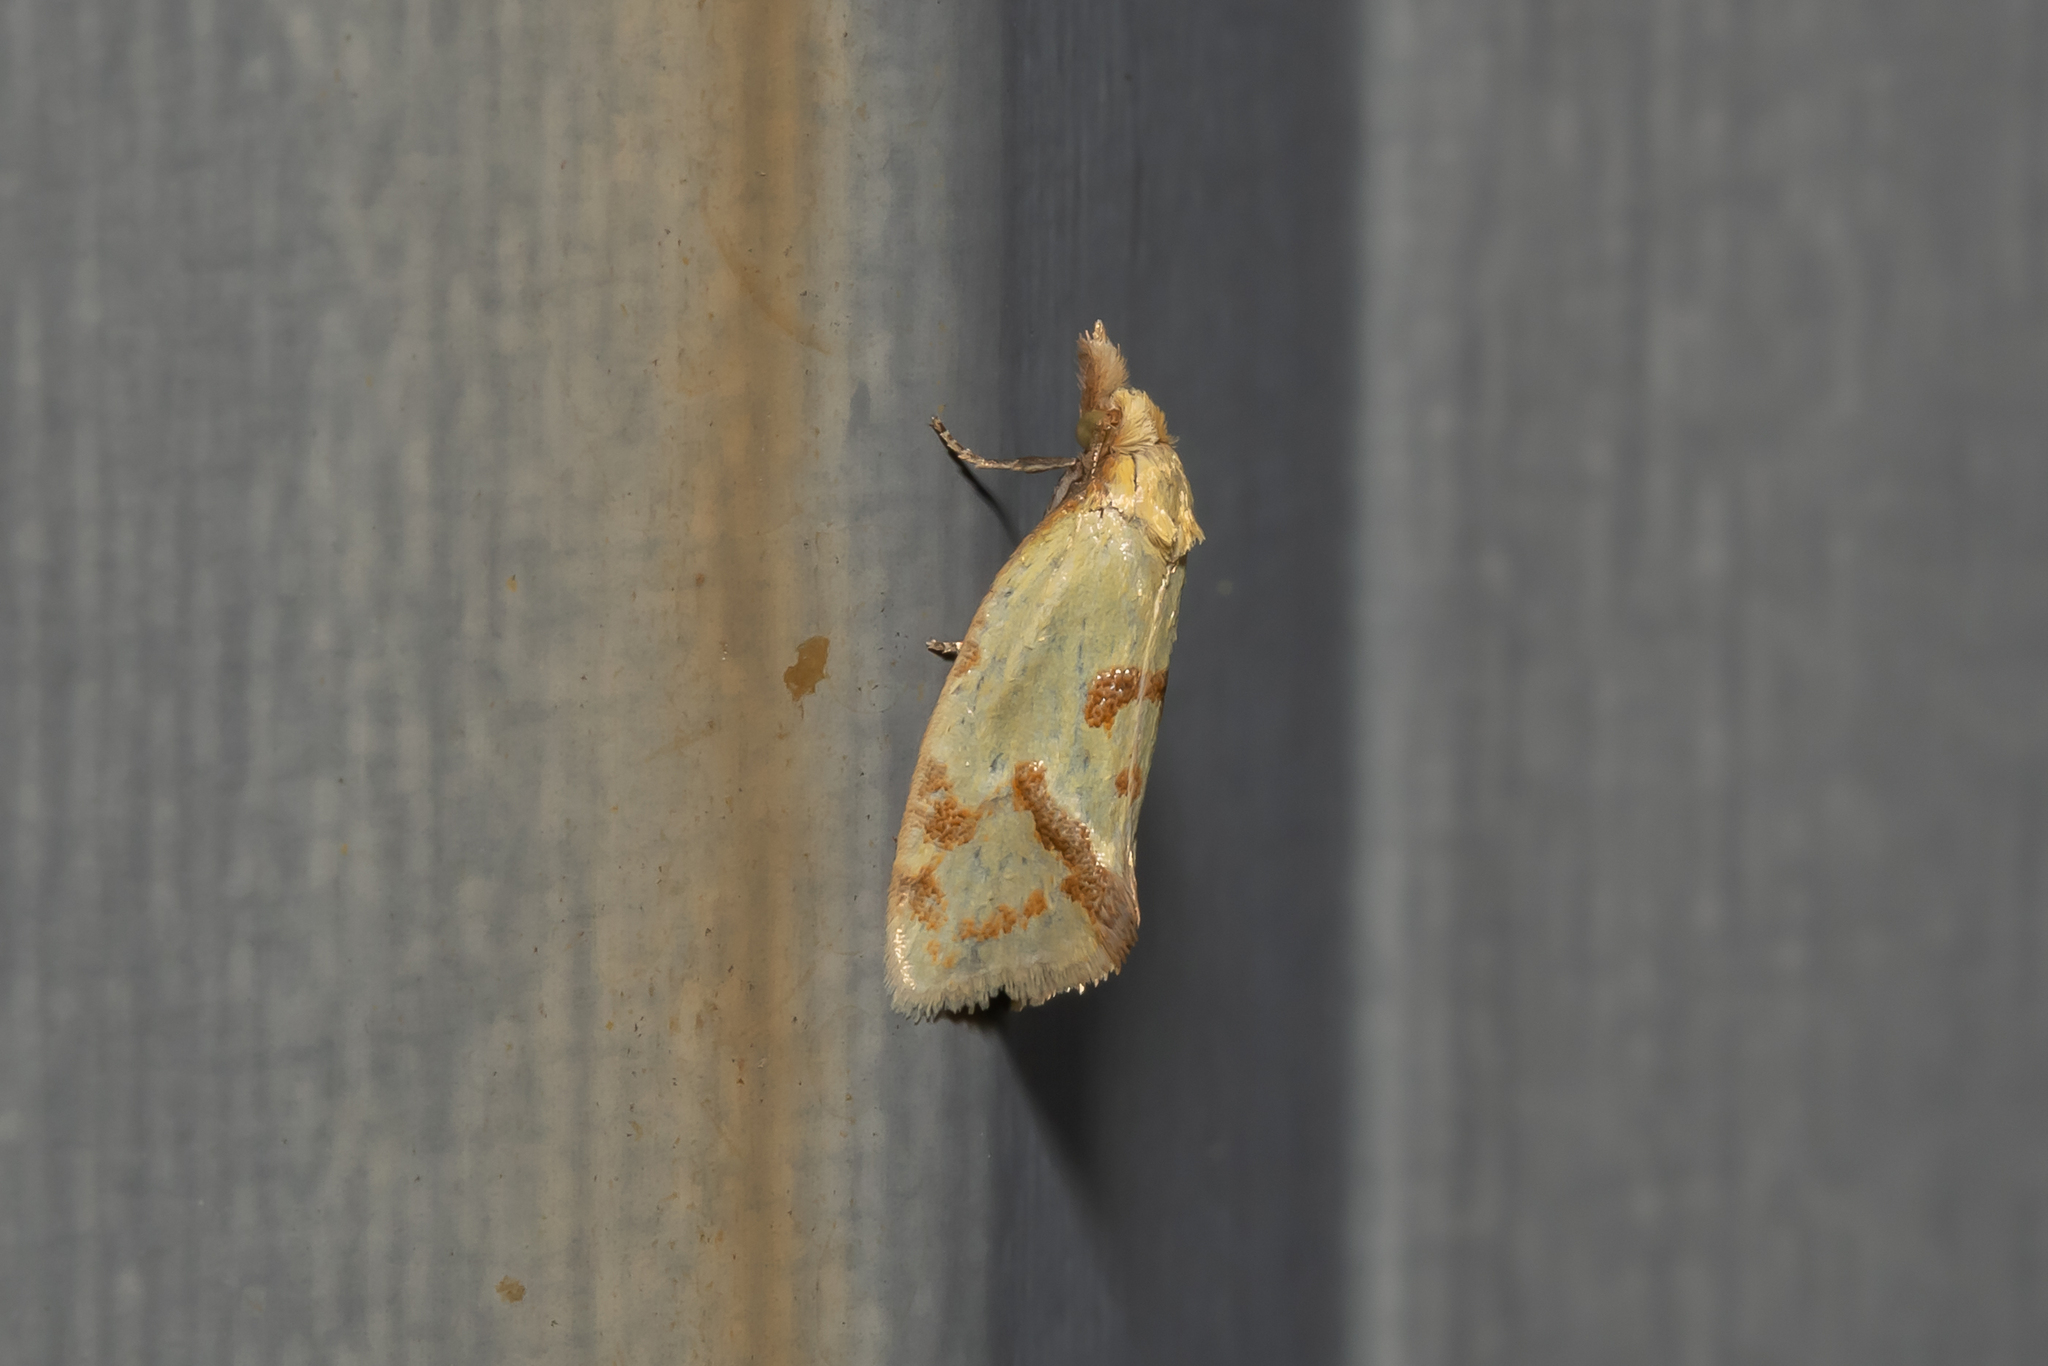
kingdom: Animalia
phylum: Arthropoda
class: Insecta
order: Lepidoptera
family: Tortricidae
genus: Agapeta
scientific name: Agapeta hamana
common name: Common yellow conch
